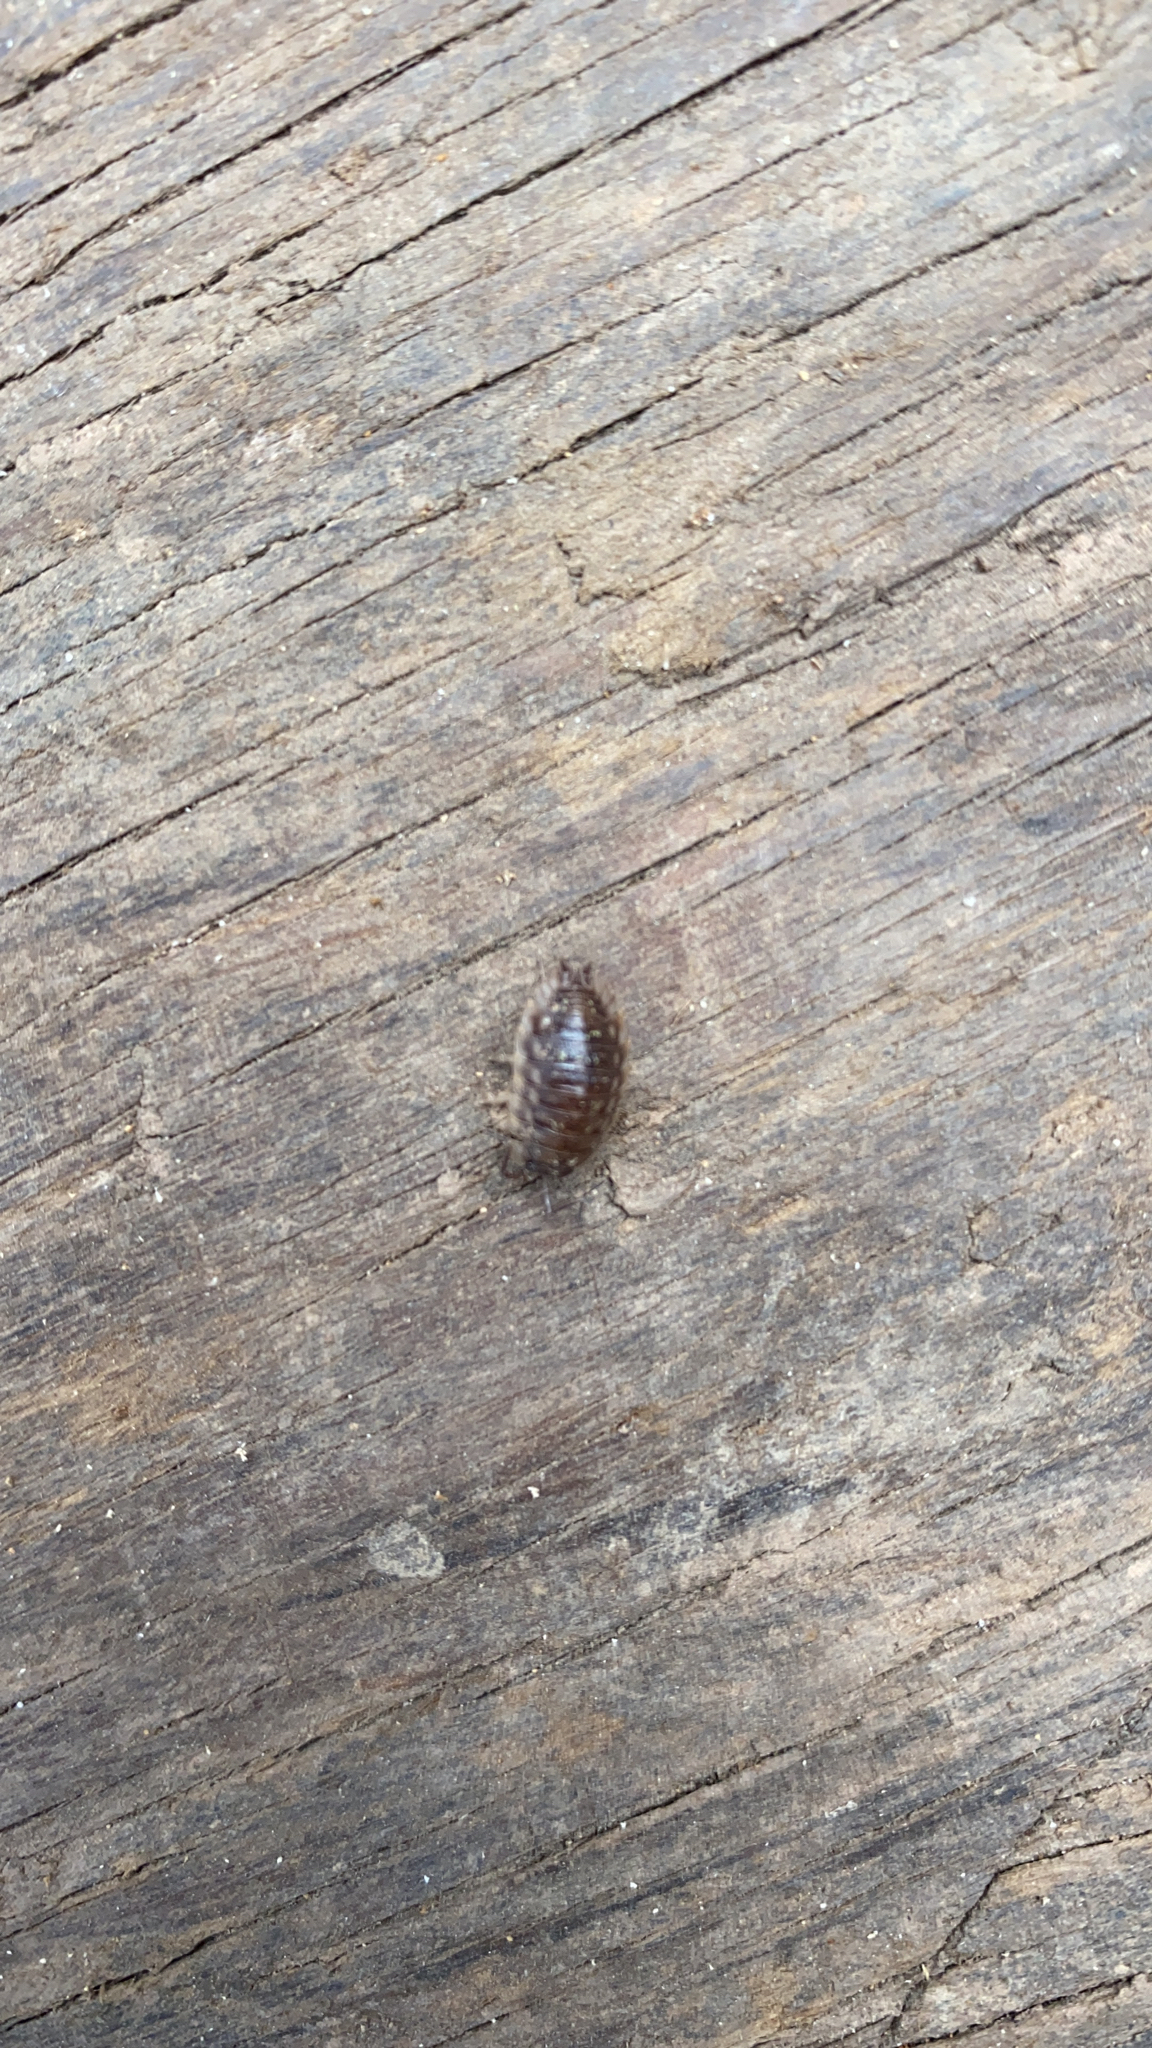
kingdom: Animalia
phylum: Arthropoda
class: Malacostraca
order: Isopoda
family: Oniscidae
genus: Oniscus
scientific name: Oniscus asellus
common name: Common shiny woodlouse
